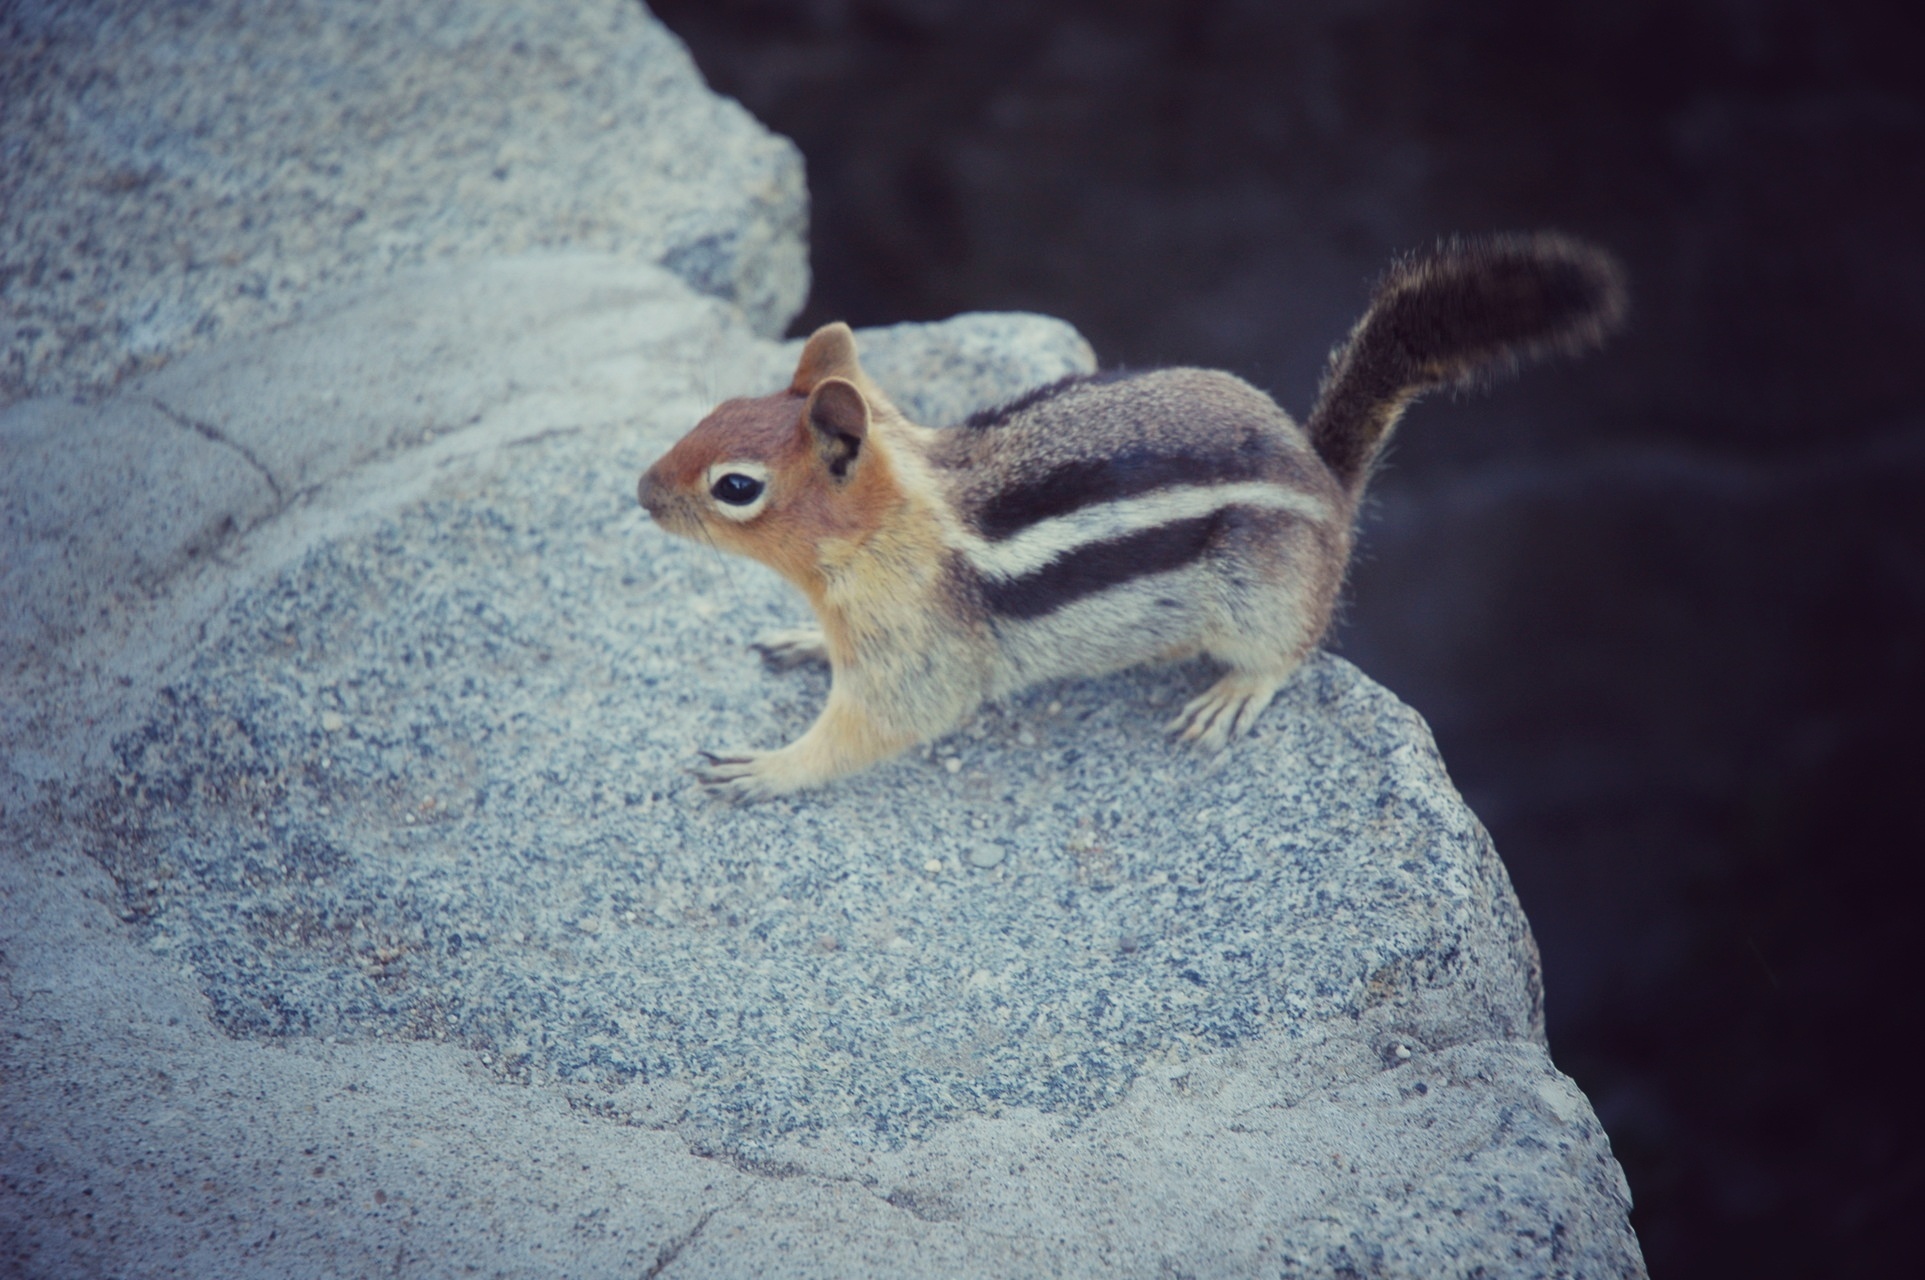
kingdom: Animalia
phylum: Chordata
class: Mammalia
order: Rodentia
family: Sciuridae
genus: Callospermophilus
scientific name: Callospermophilus lateralis
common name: Golden-mantled ground squirrel
